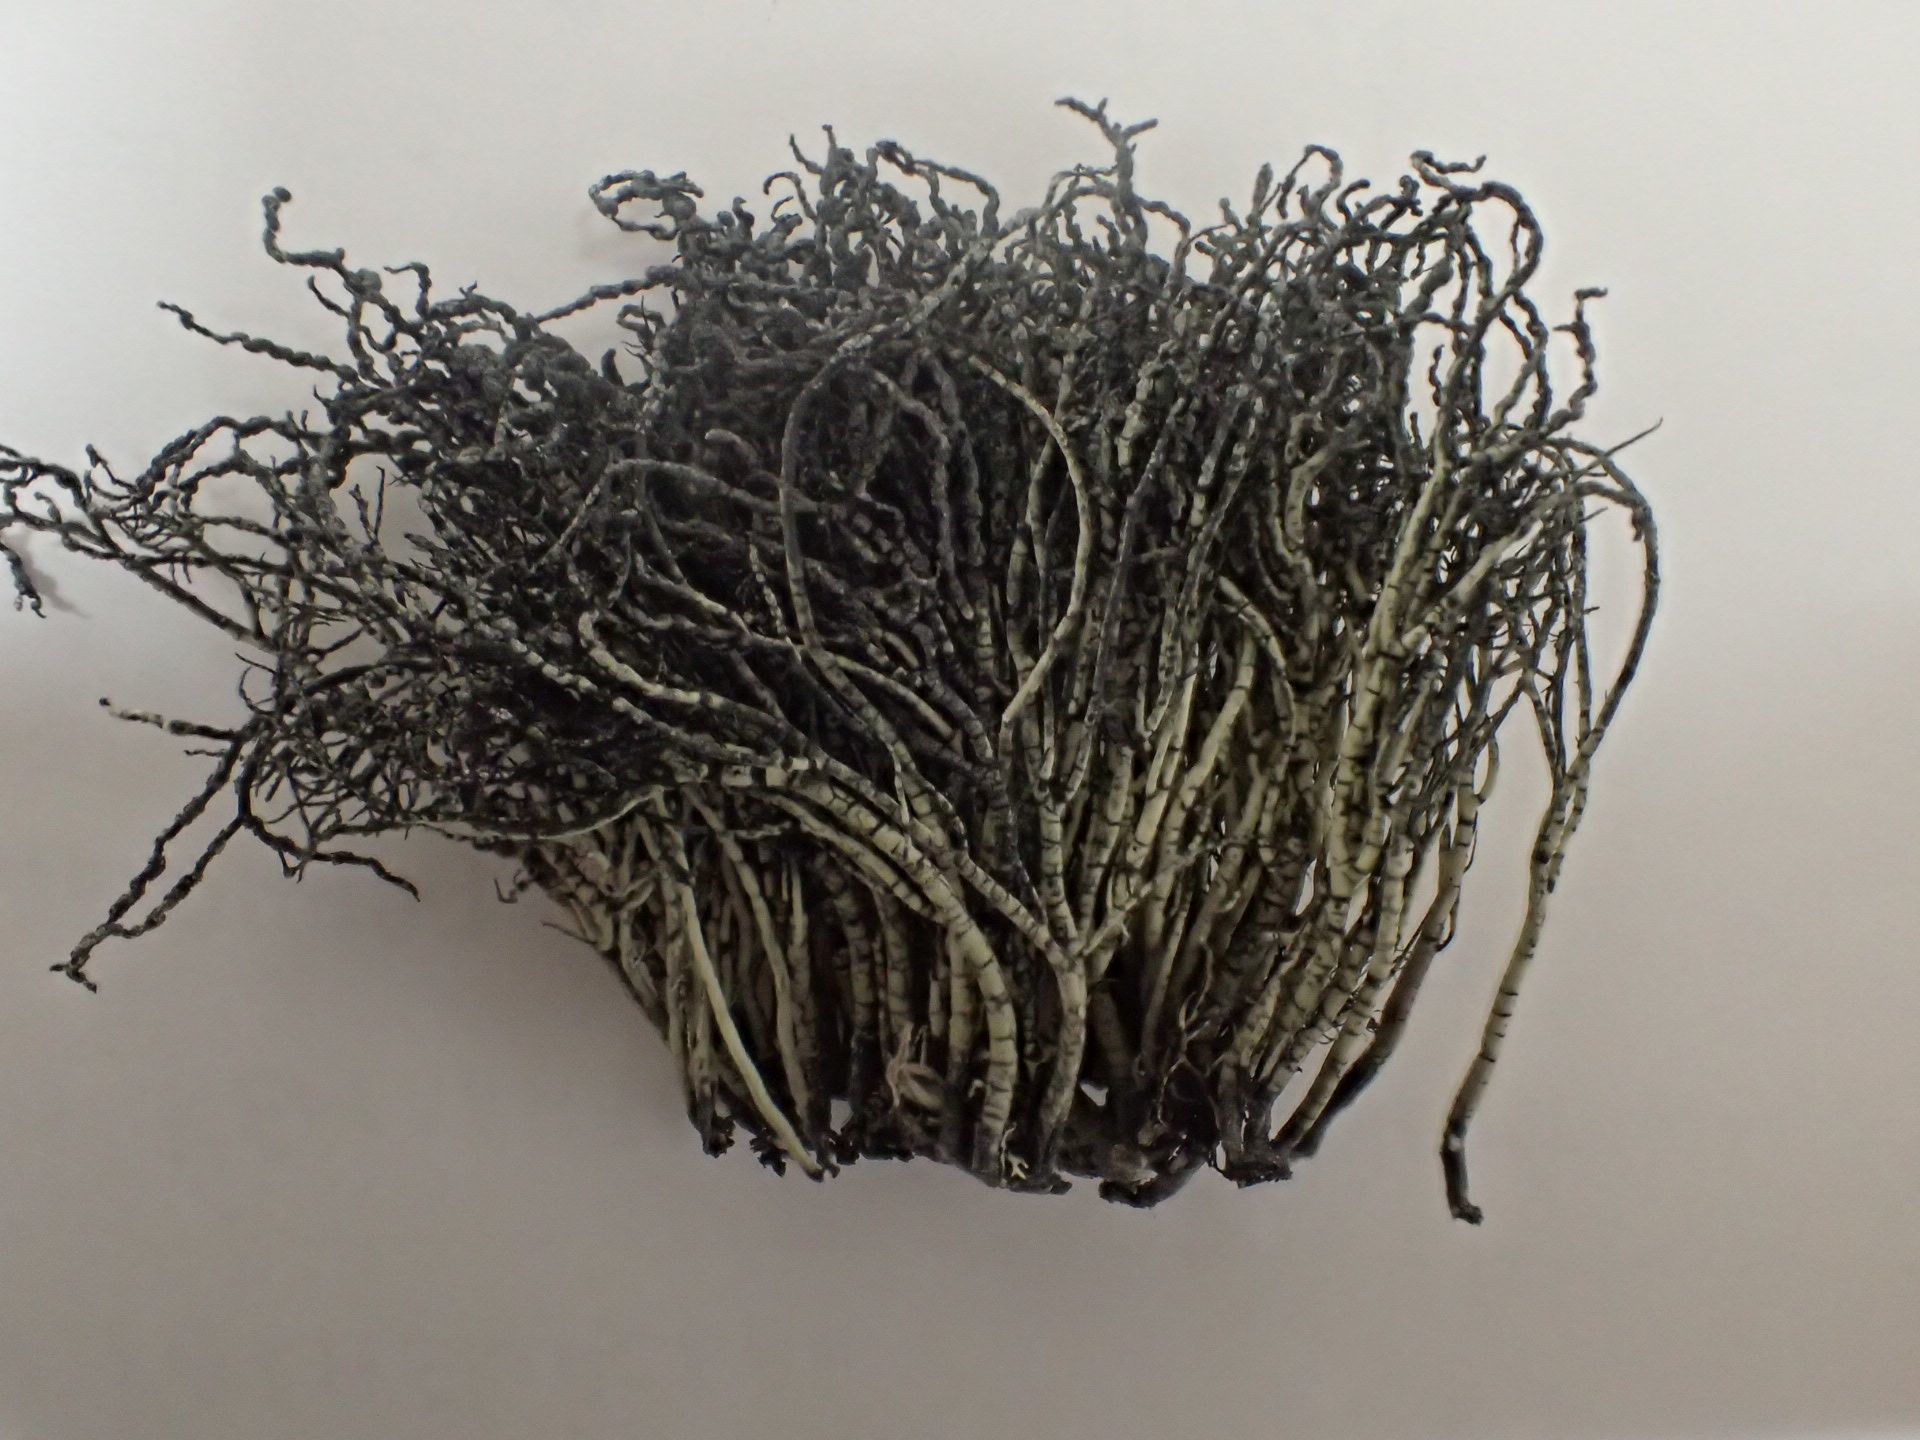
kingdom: Fungi
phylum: Ascomycota
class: Lecanoromycetes
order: Lecanorales
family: Parmeliaceae
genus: Usnea
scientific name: Usnea acromelana
